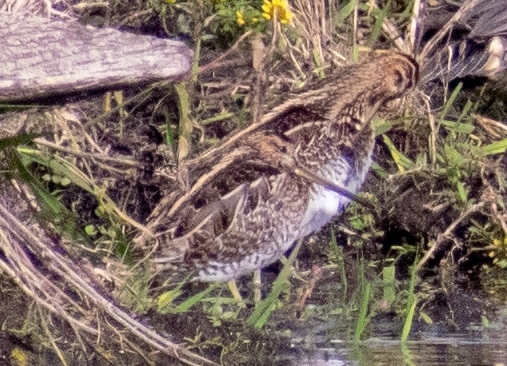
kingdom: Animalia
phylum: Chordata
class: Aves
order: Charadriiformes
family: Scolopacidae
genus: Gallinago
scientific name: Gallinago gallinago
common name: Common snipe
